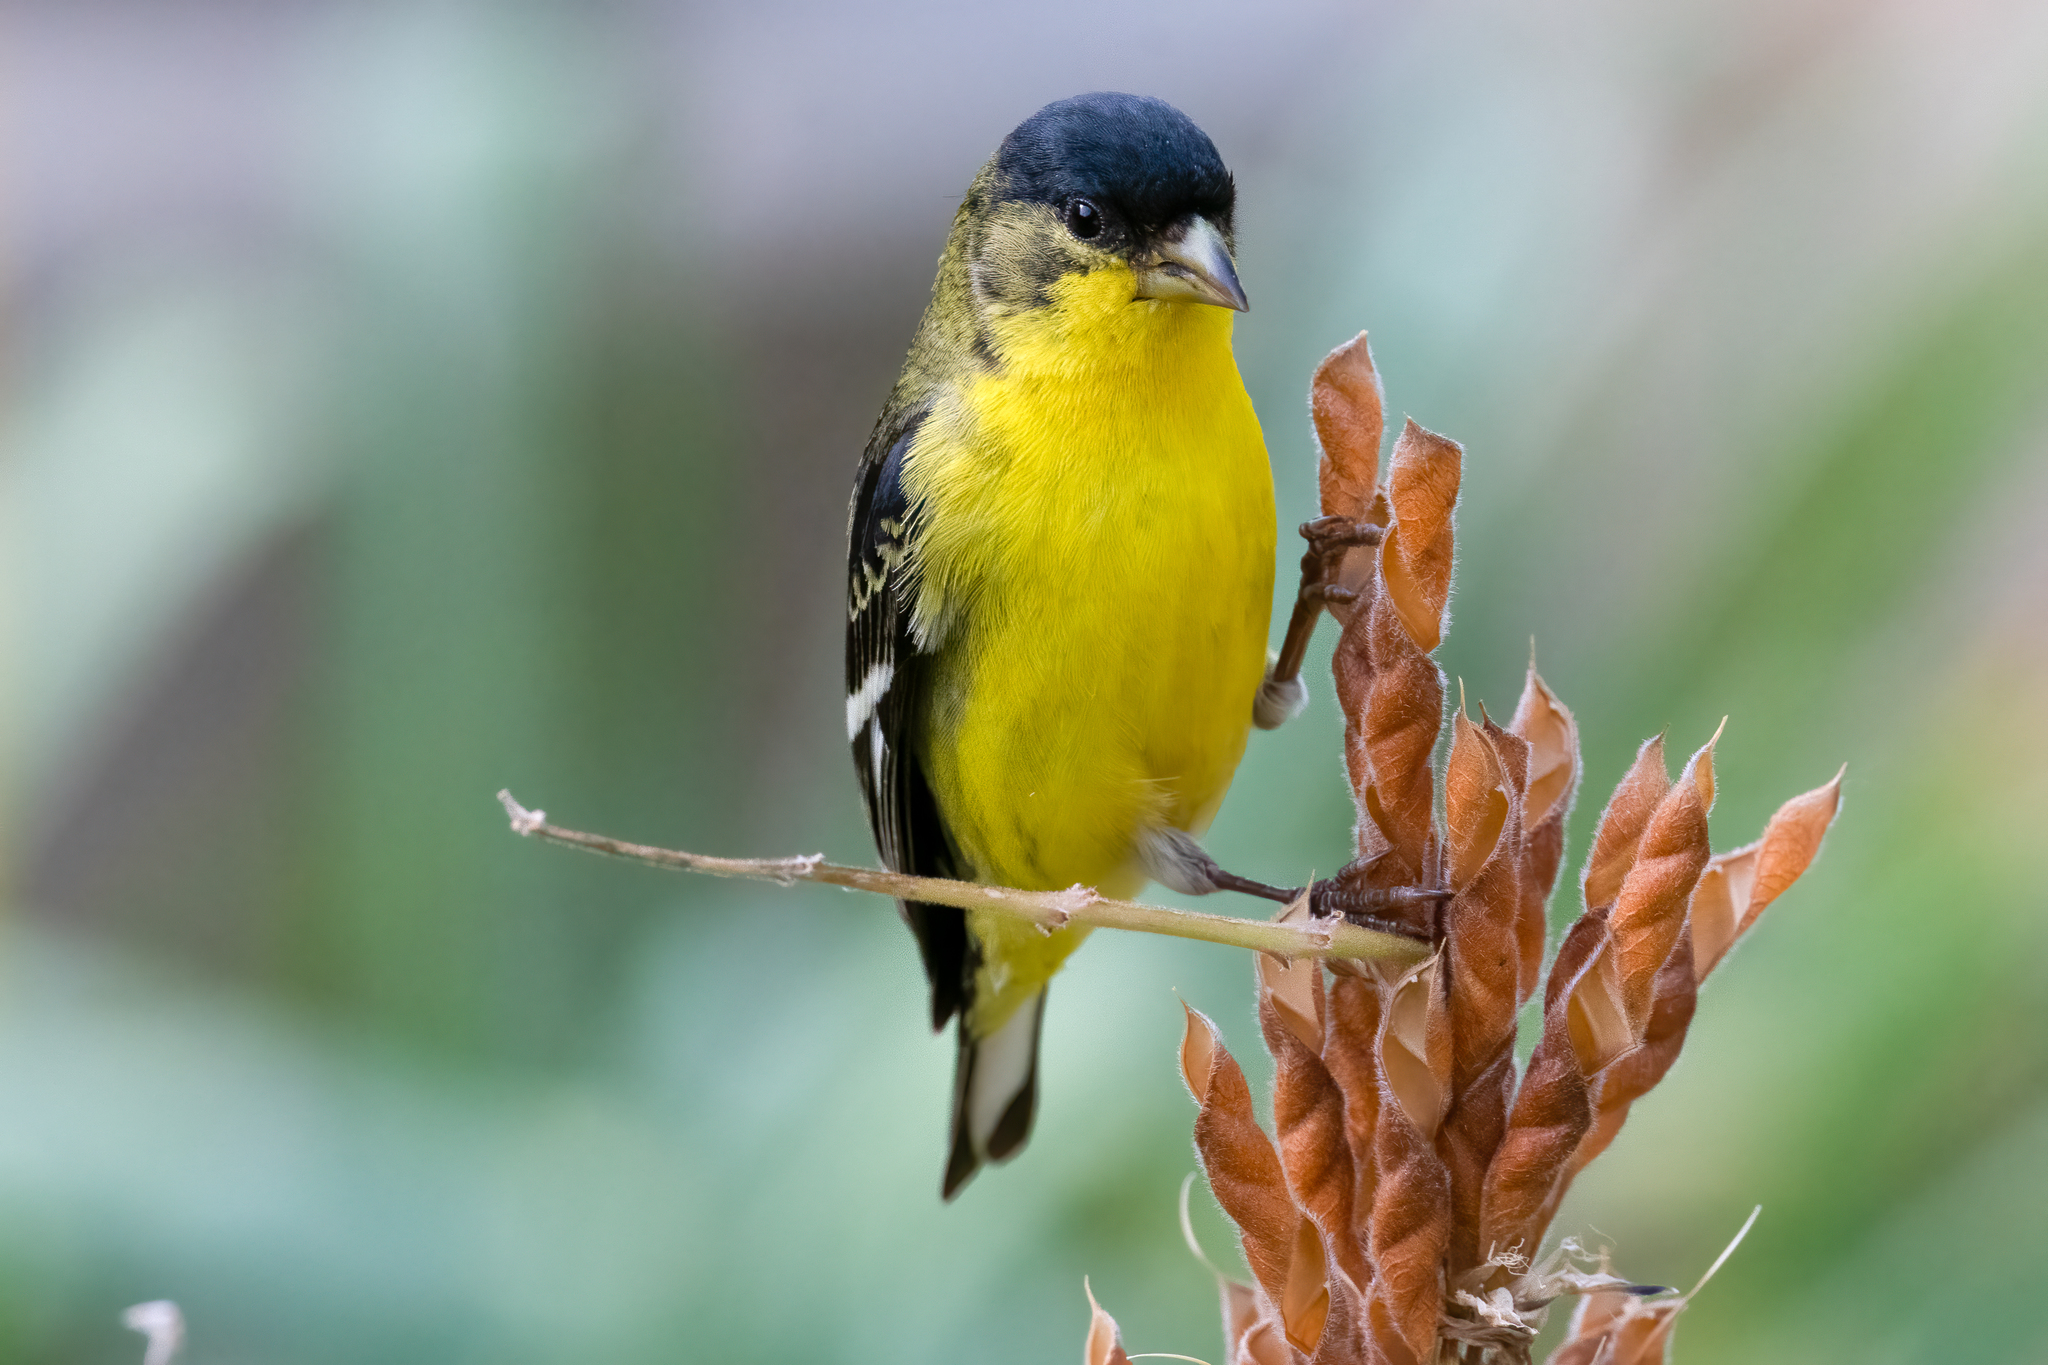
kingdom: Animalia
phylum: Chordata
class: Aves
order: Passeriformes
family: Fringillidae
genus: Spinus
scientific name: Spinus psaltria
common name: Lesser goldfinch
